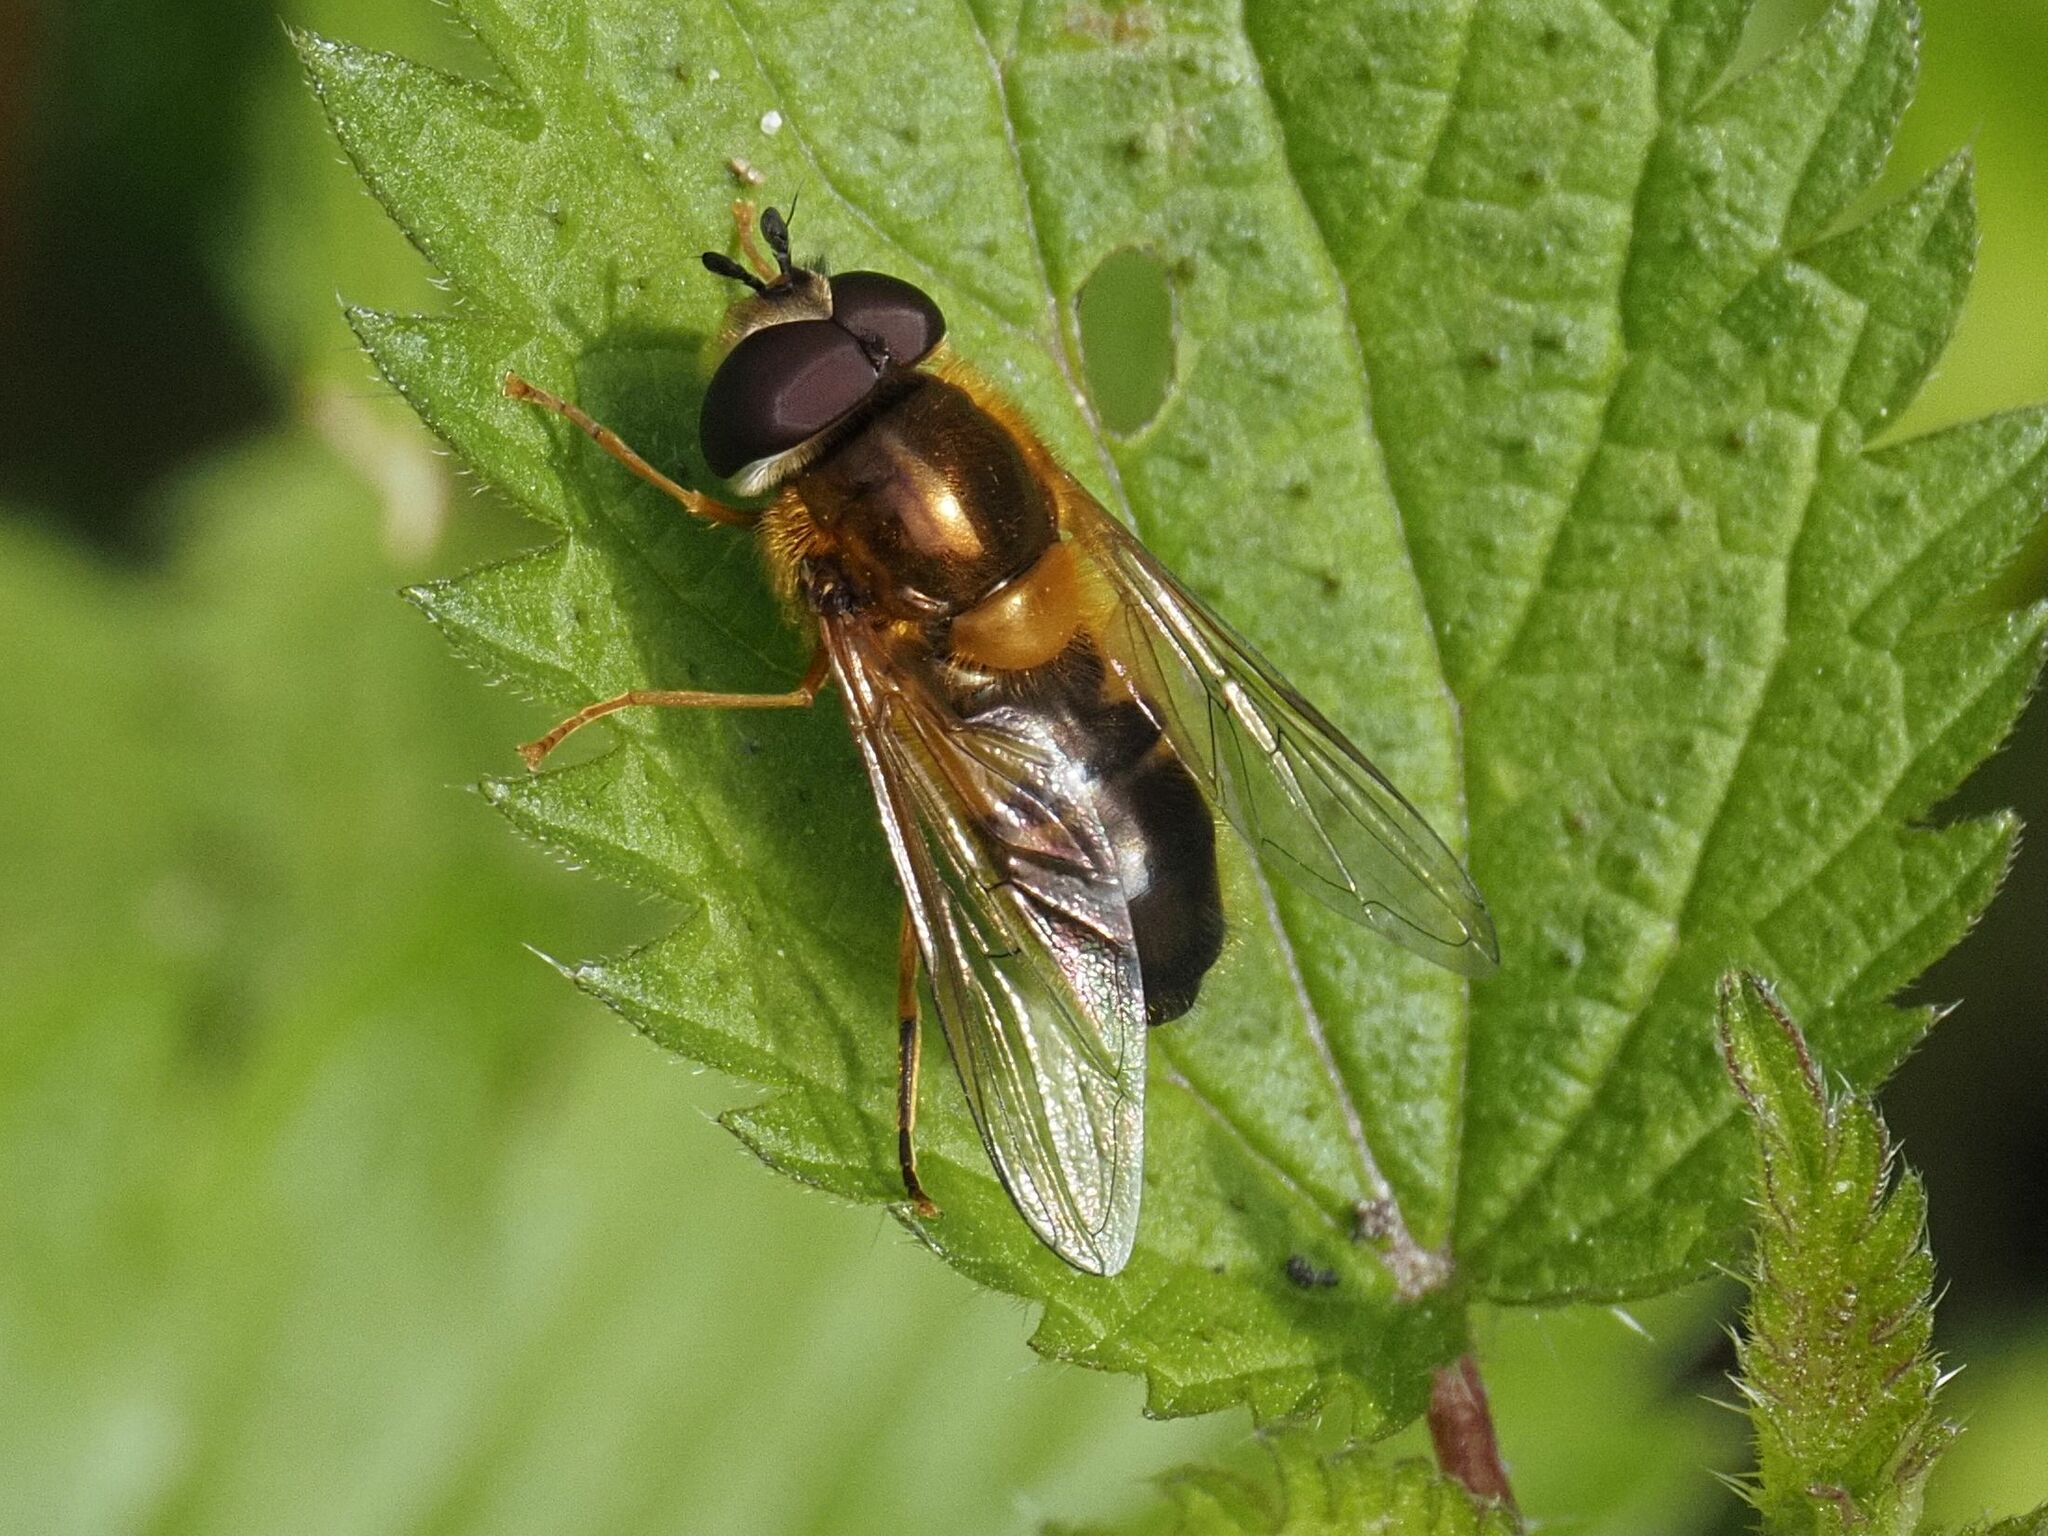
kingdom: Animalia
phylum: Arthropoda
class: Insecta
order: Diptera
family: Syrphidae
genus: Epistrophe
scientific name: Epistrophe eligans
